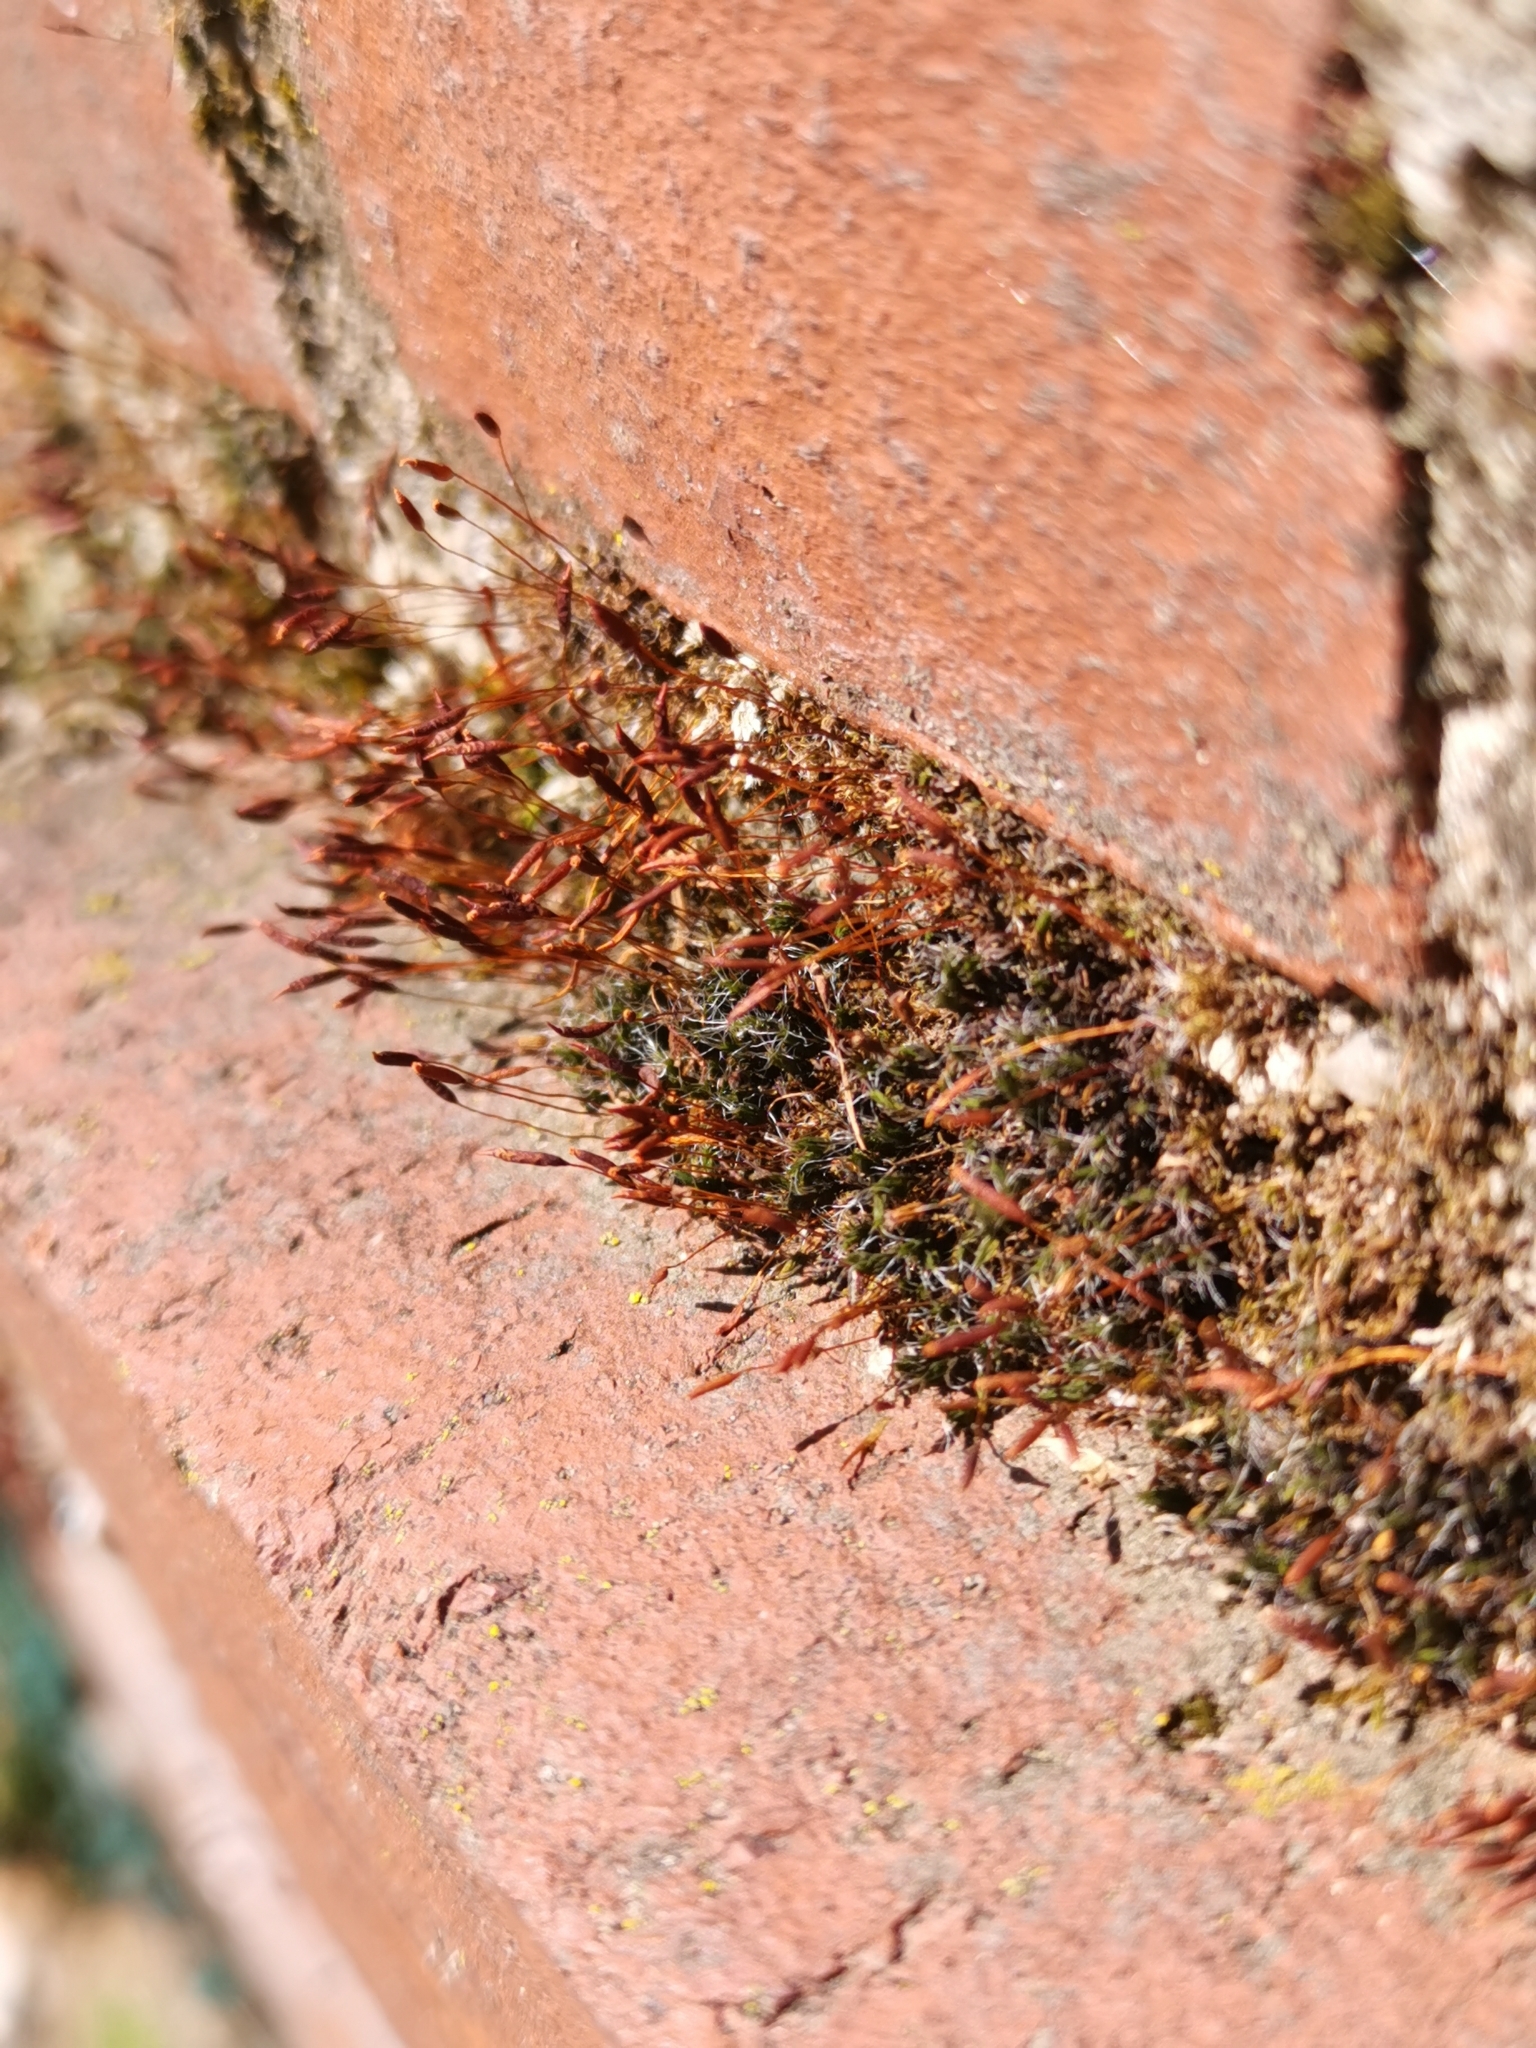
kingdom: Plantae
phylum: Bryophyta
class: Bryopsida
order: Pottiales
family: Pottiaceae
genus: Tortula
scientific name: Tortula muralis
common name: Wall screw-moss
